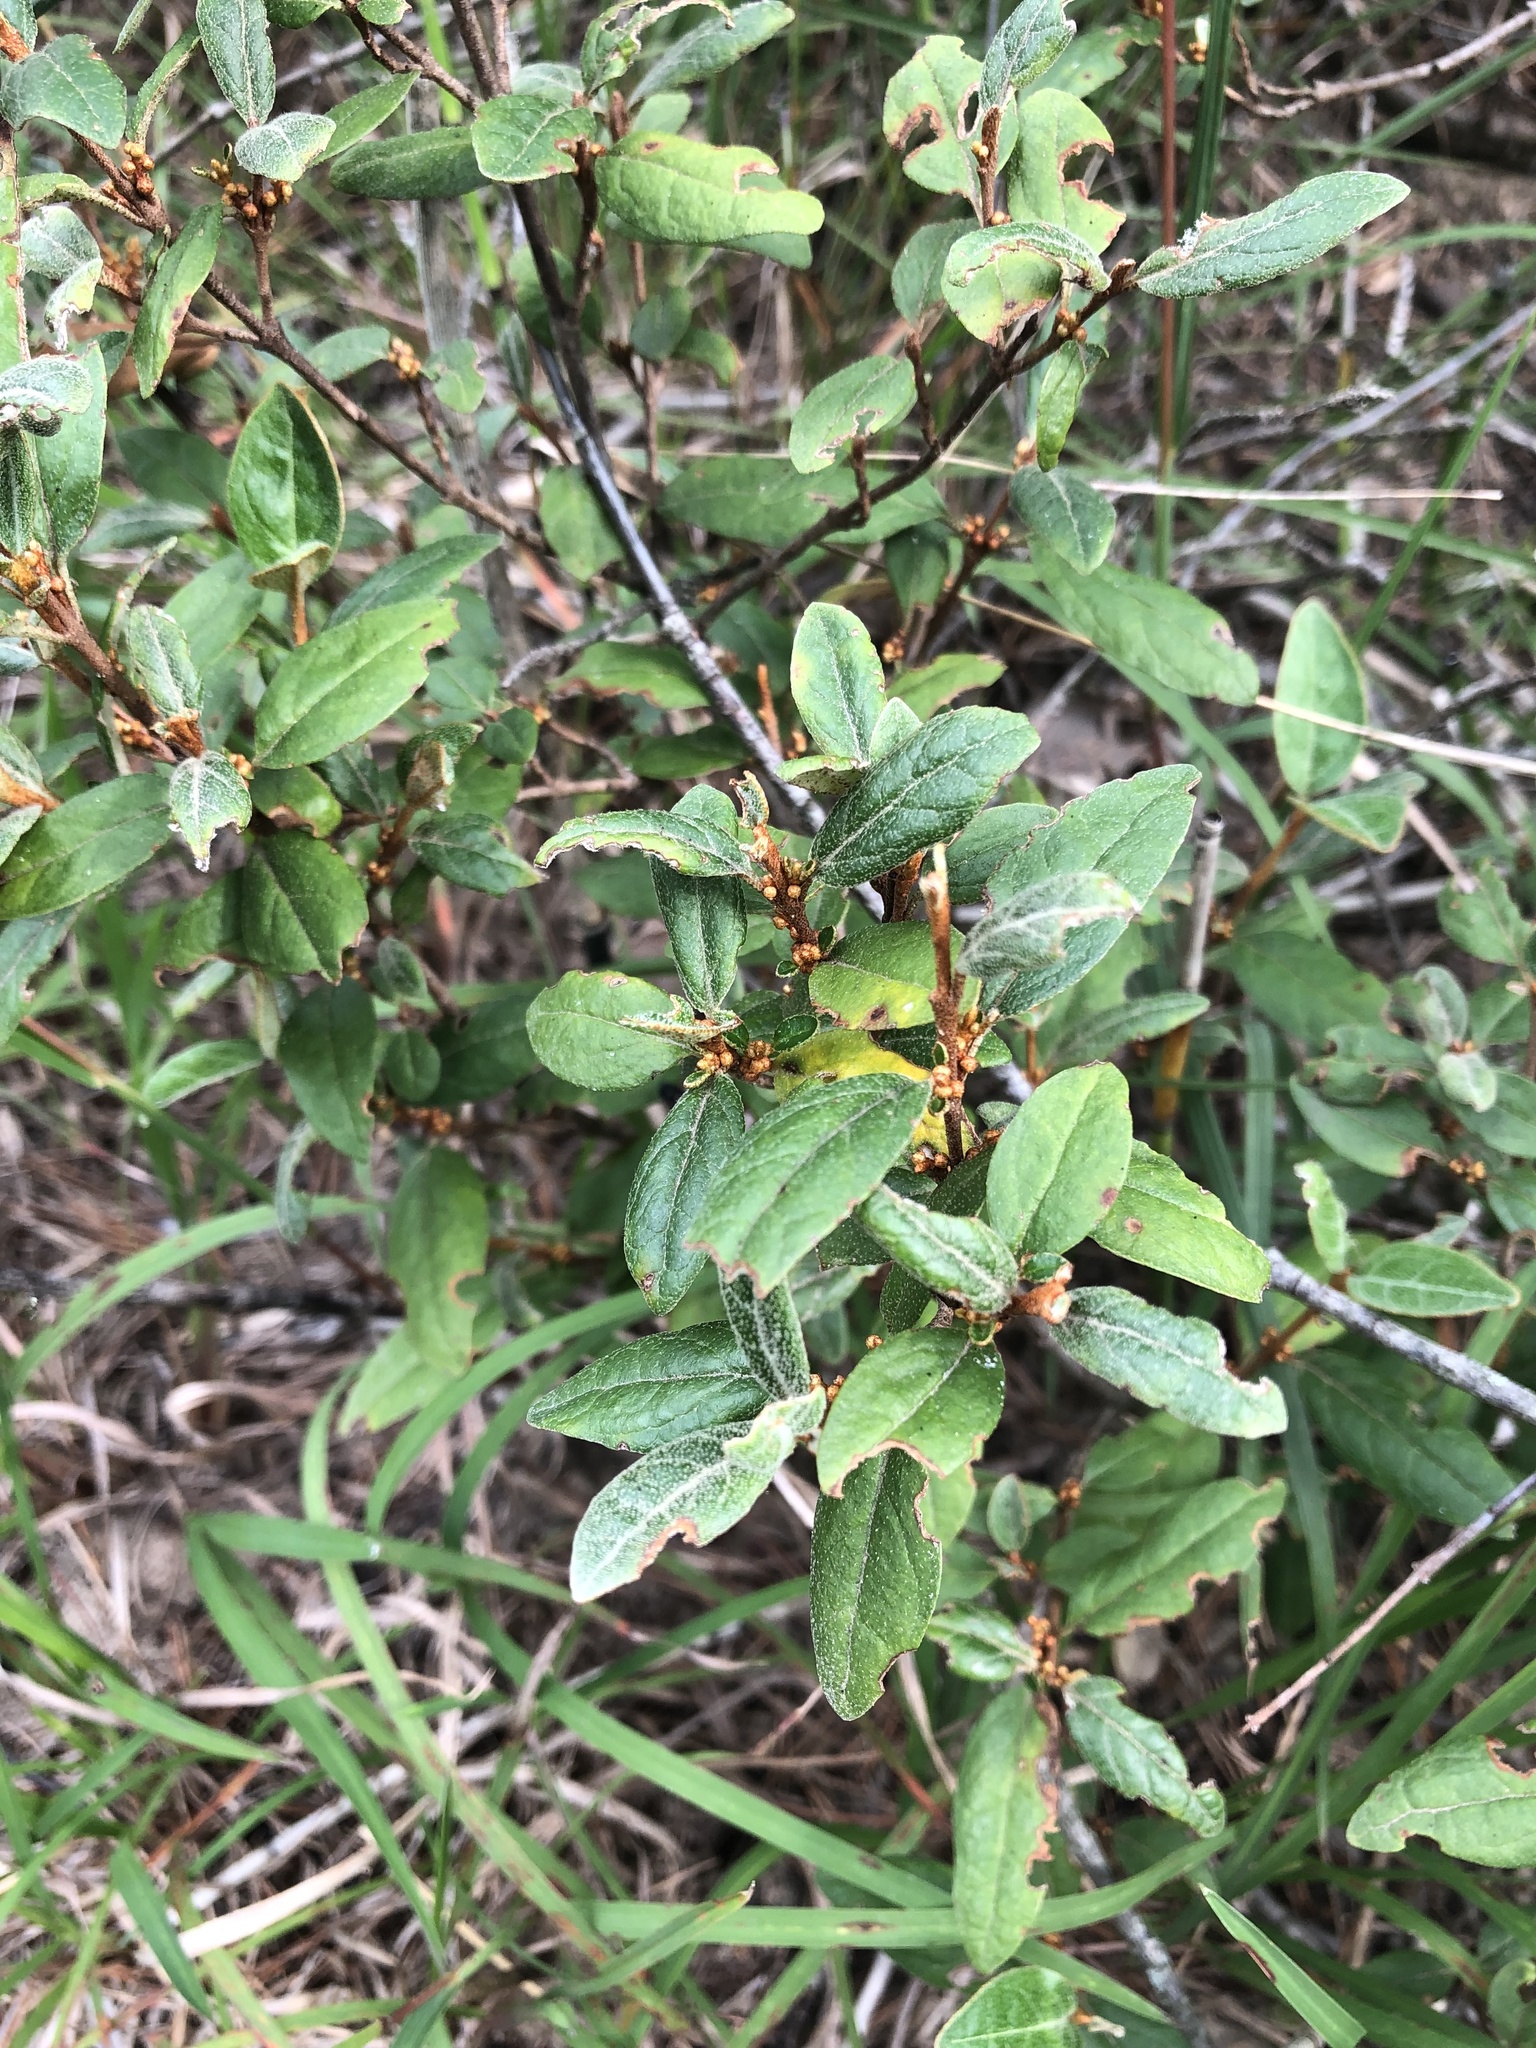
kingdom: Plantae
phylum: Tracheophyta
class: Magnoliopsida
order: Rosales
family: Elaeagnaceae
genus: Shepherdia
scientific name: Shepherdia canadensis
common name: Soapberry
